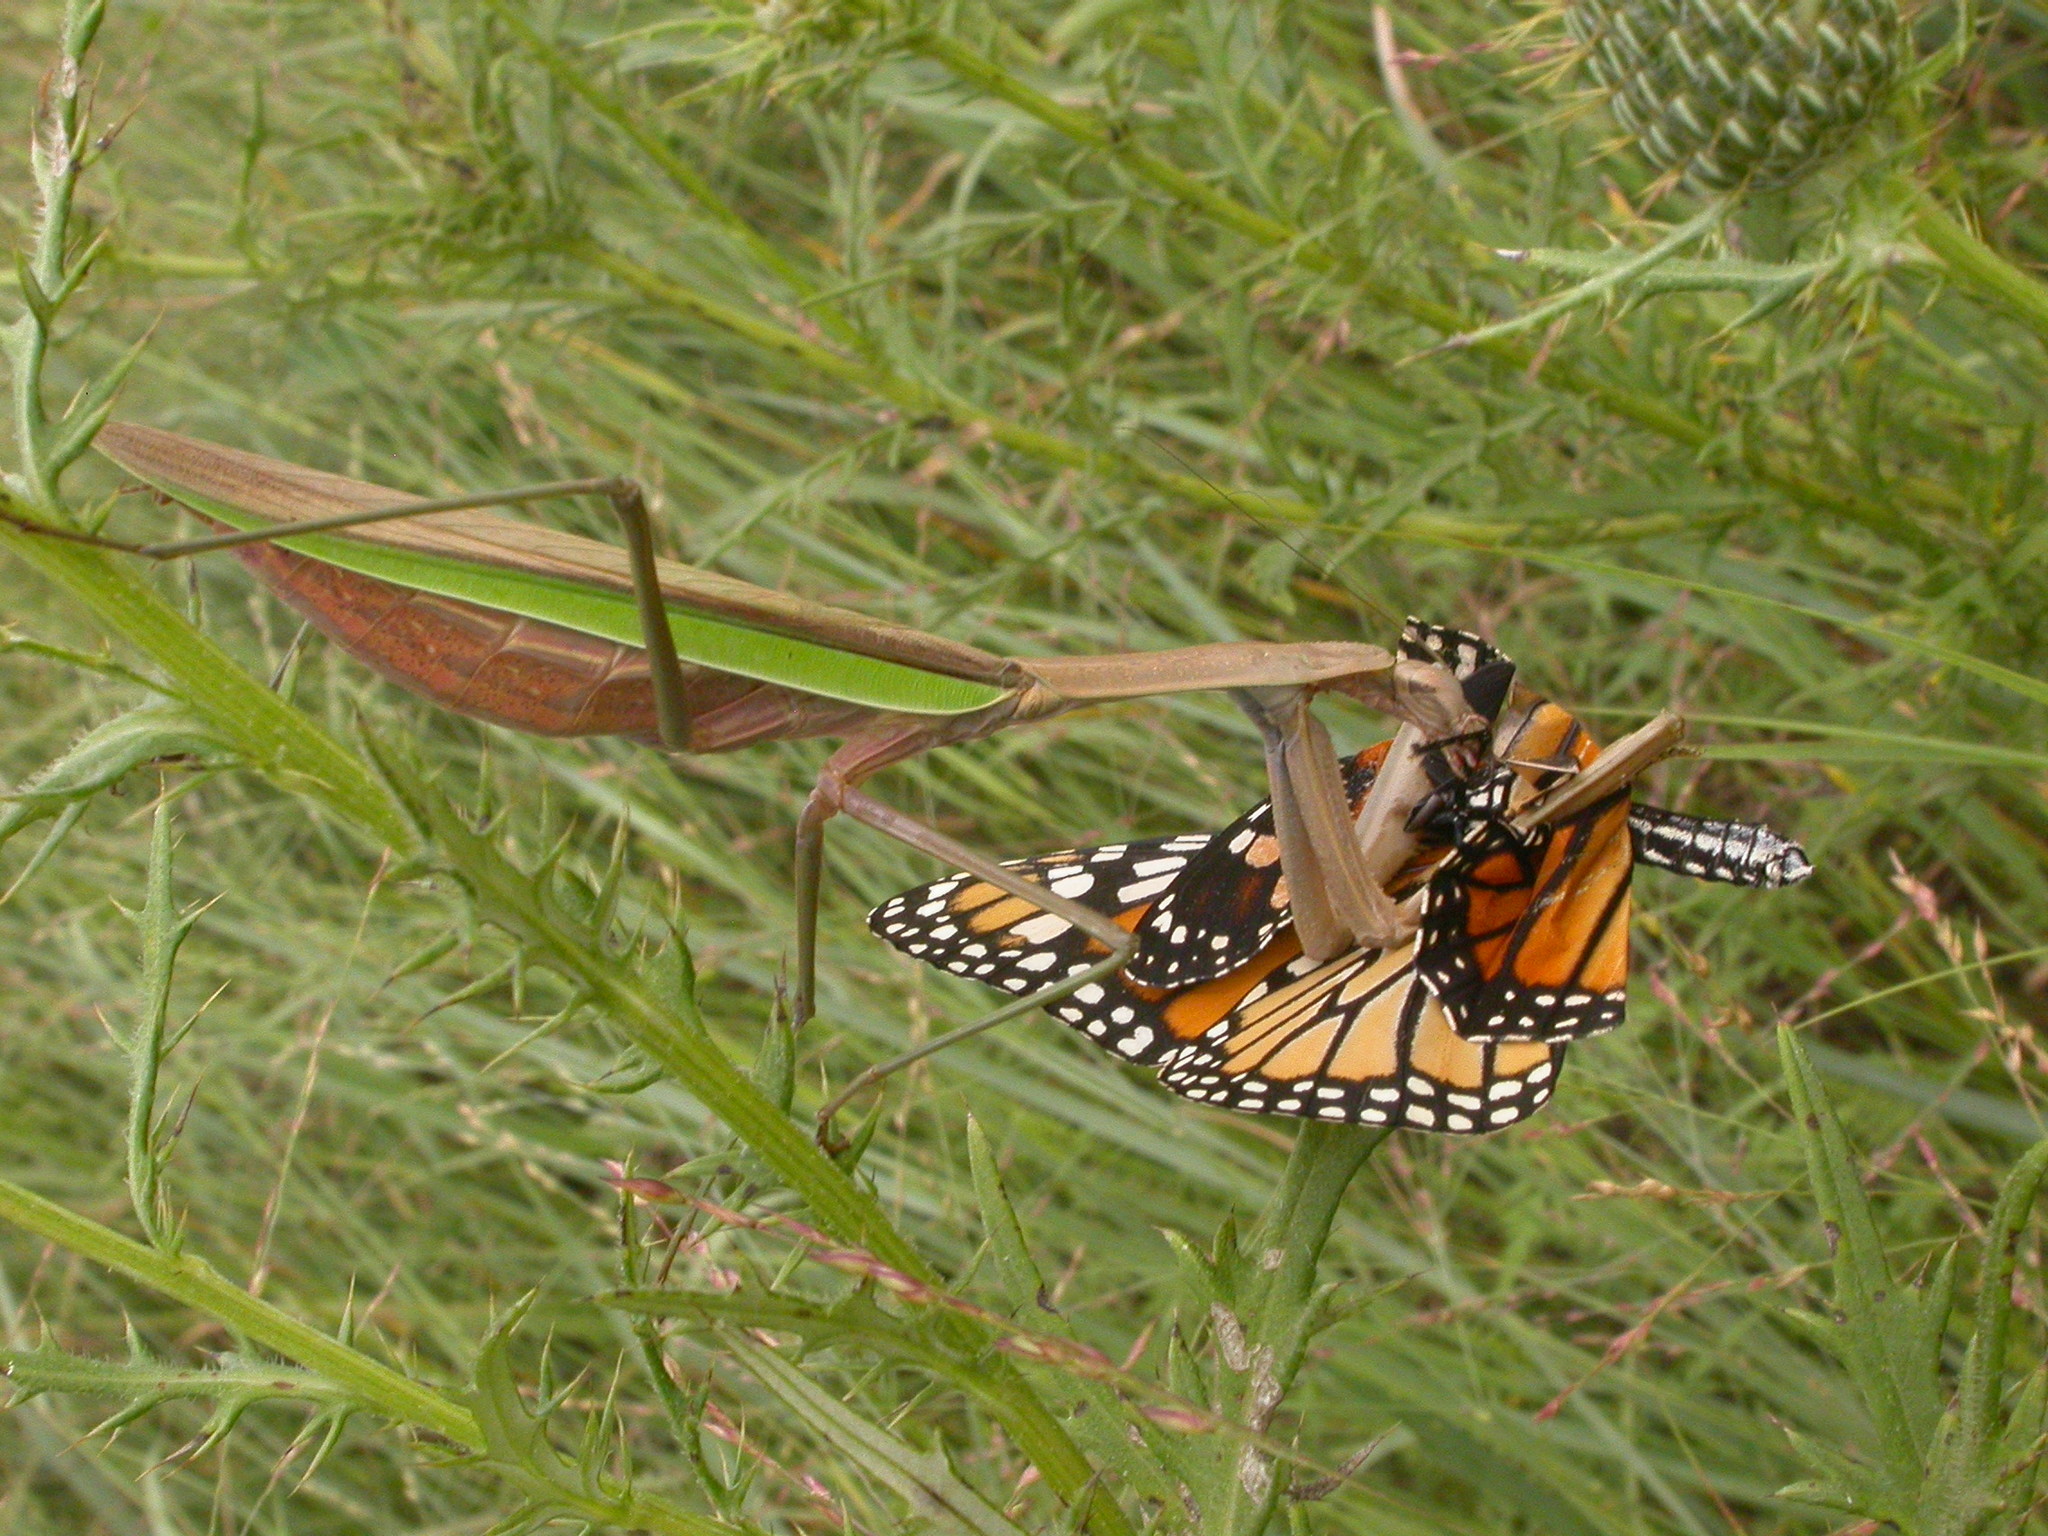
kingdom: Animalia
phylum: Arthropoda
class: Insecta
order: Mantodea
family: Mantidae
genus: Tenodera
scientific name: Tenodera sinensis
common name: Chinese mantis
